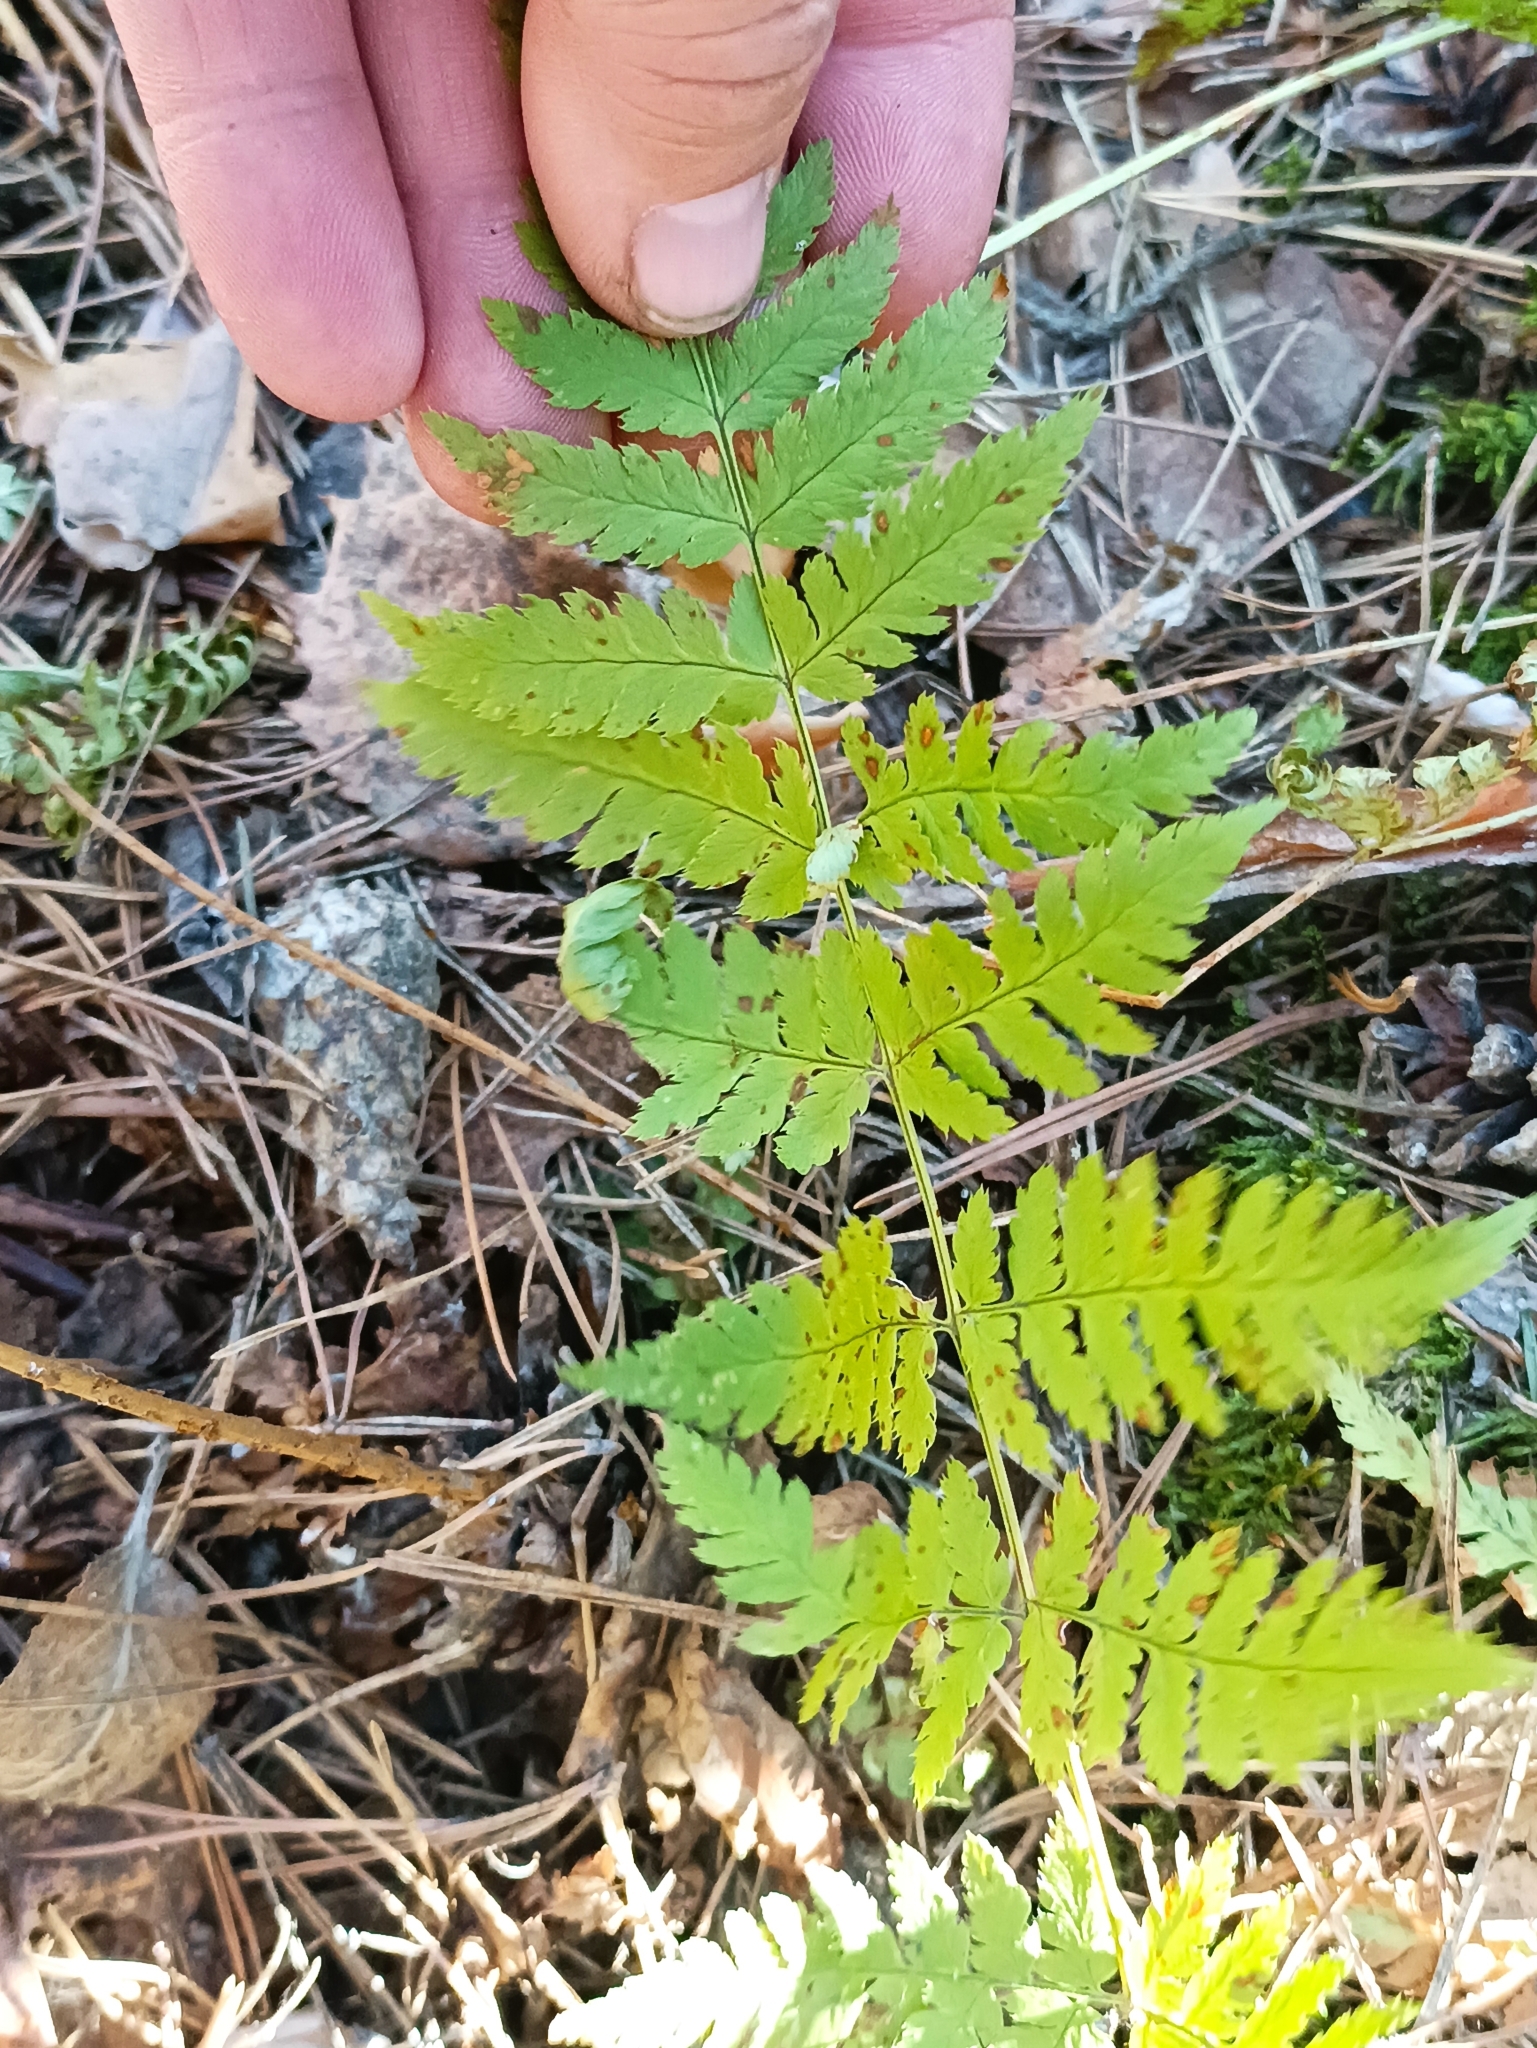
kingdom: Plantae
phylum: Tracheophyta
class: Polypodiopsida
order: Polypodiales
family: Dryopteridaceae
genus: Dryopteris
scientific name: Dryopteris carthusiana
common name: Narrow buckler-fern
